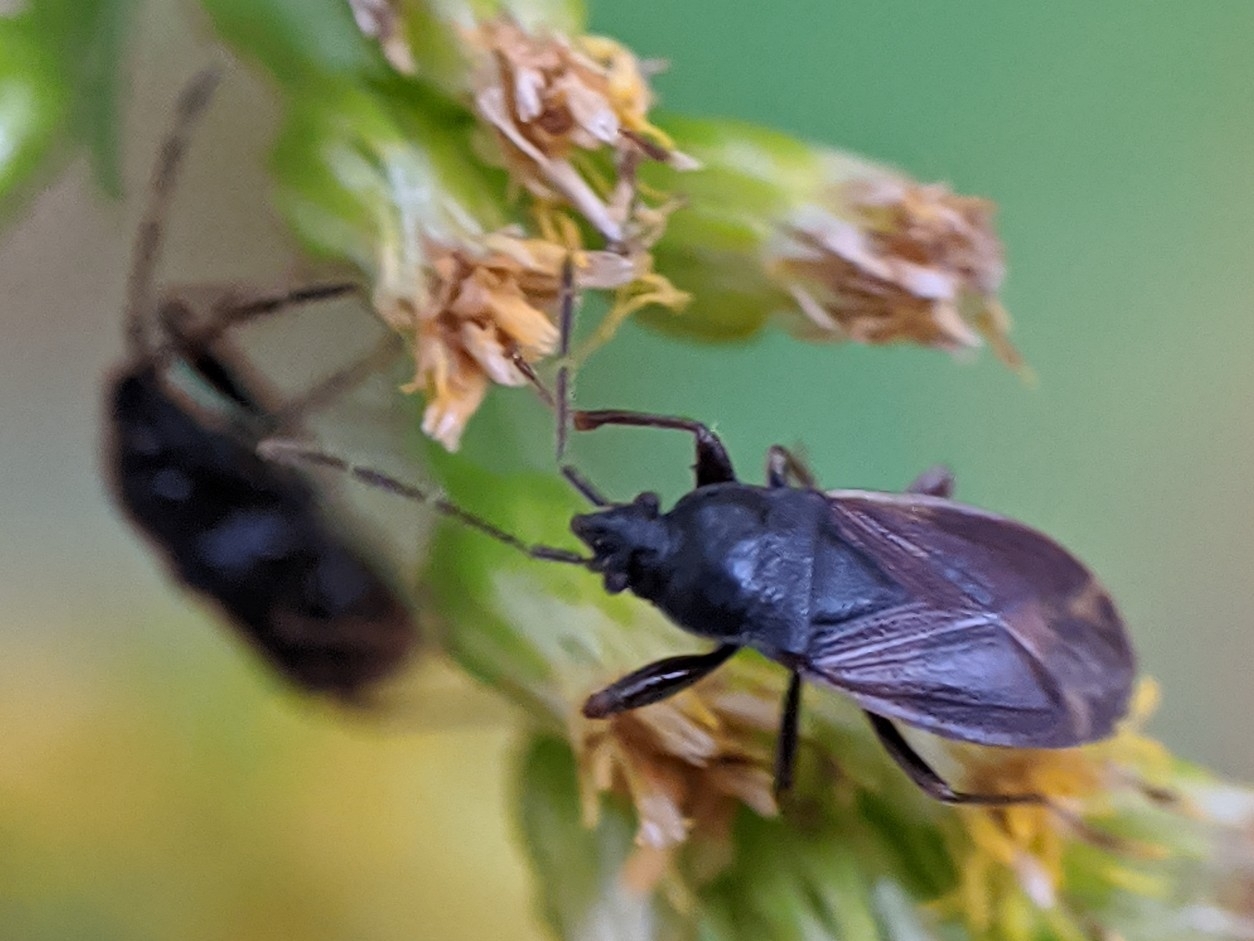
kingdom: Animalia
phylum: Arthropoda
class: Insecta
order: Hemiptera
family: Rhyparochromidae
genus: Drymus
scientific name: Drymus unus
